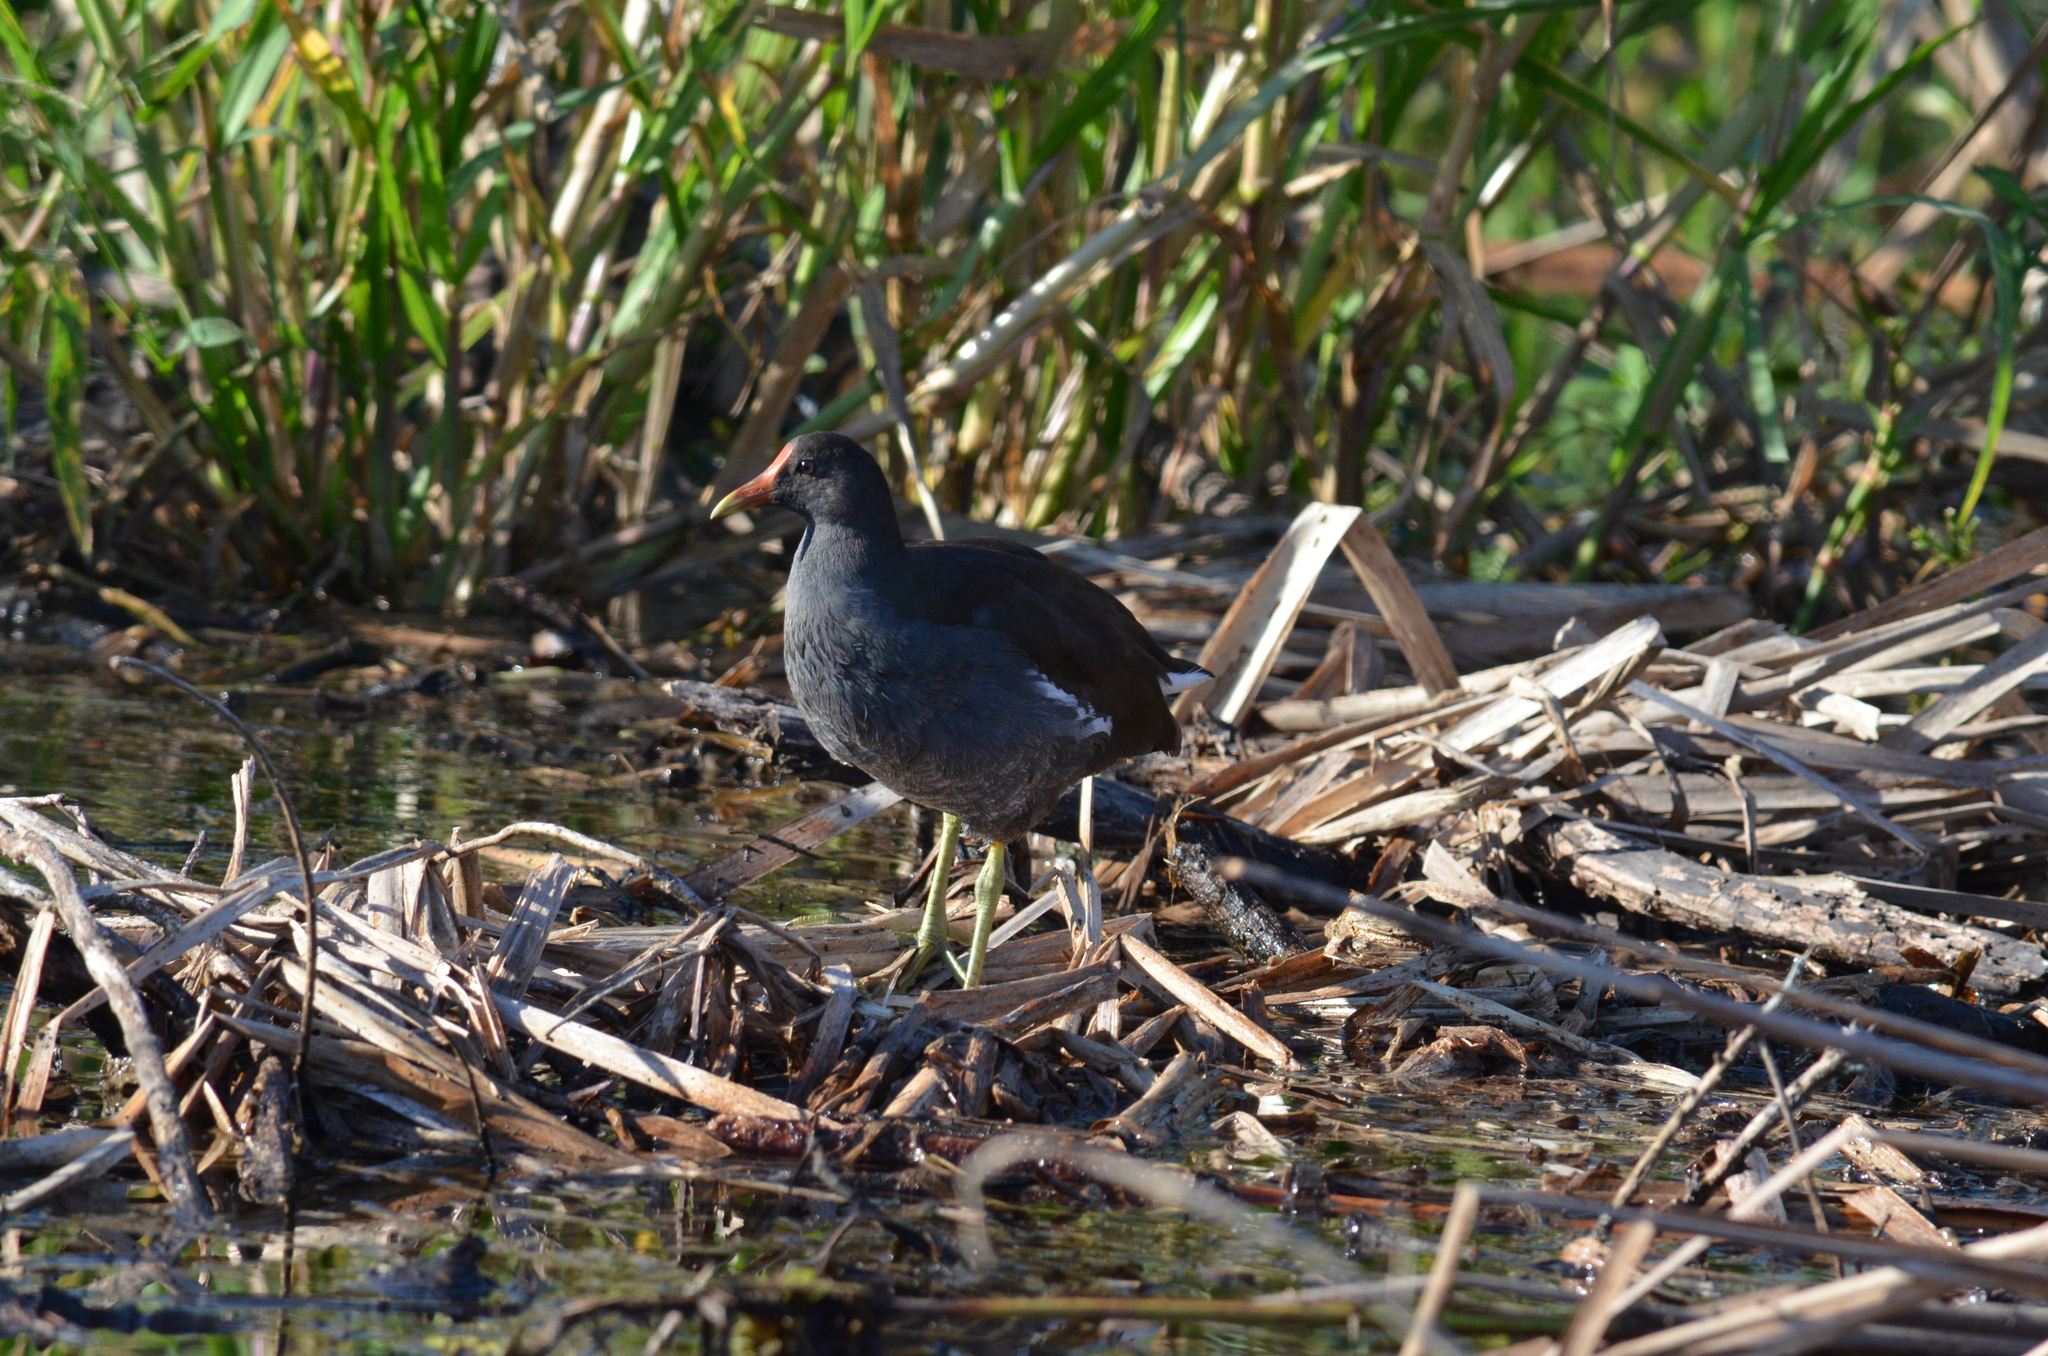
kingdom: Animalia
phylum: Chordata
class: Aves
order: Gruiformes
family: Rallidae
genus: Gallinula
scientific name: Gallinula chloropus
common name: Common moorhen
